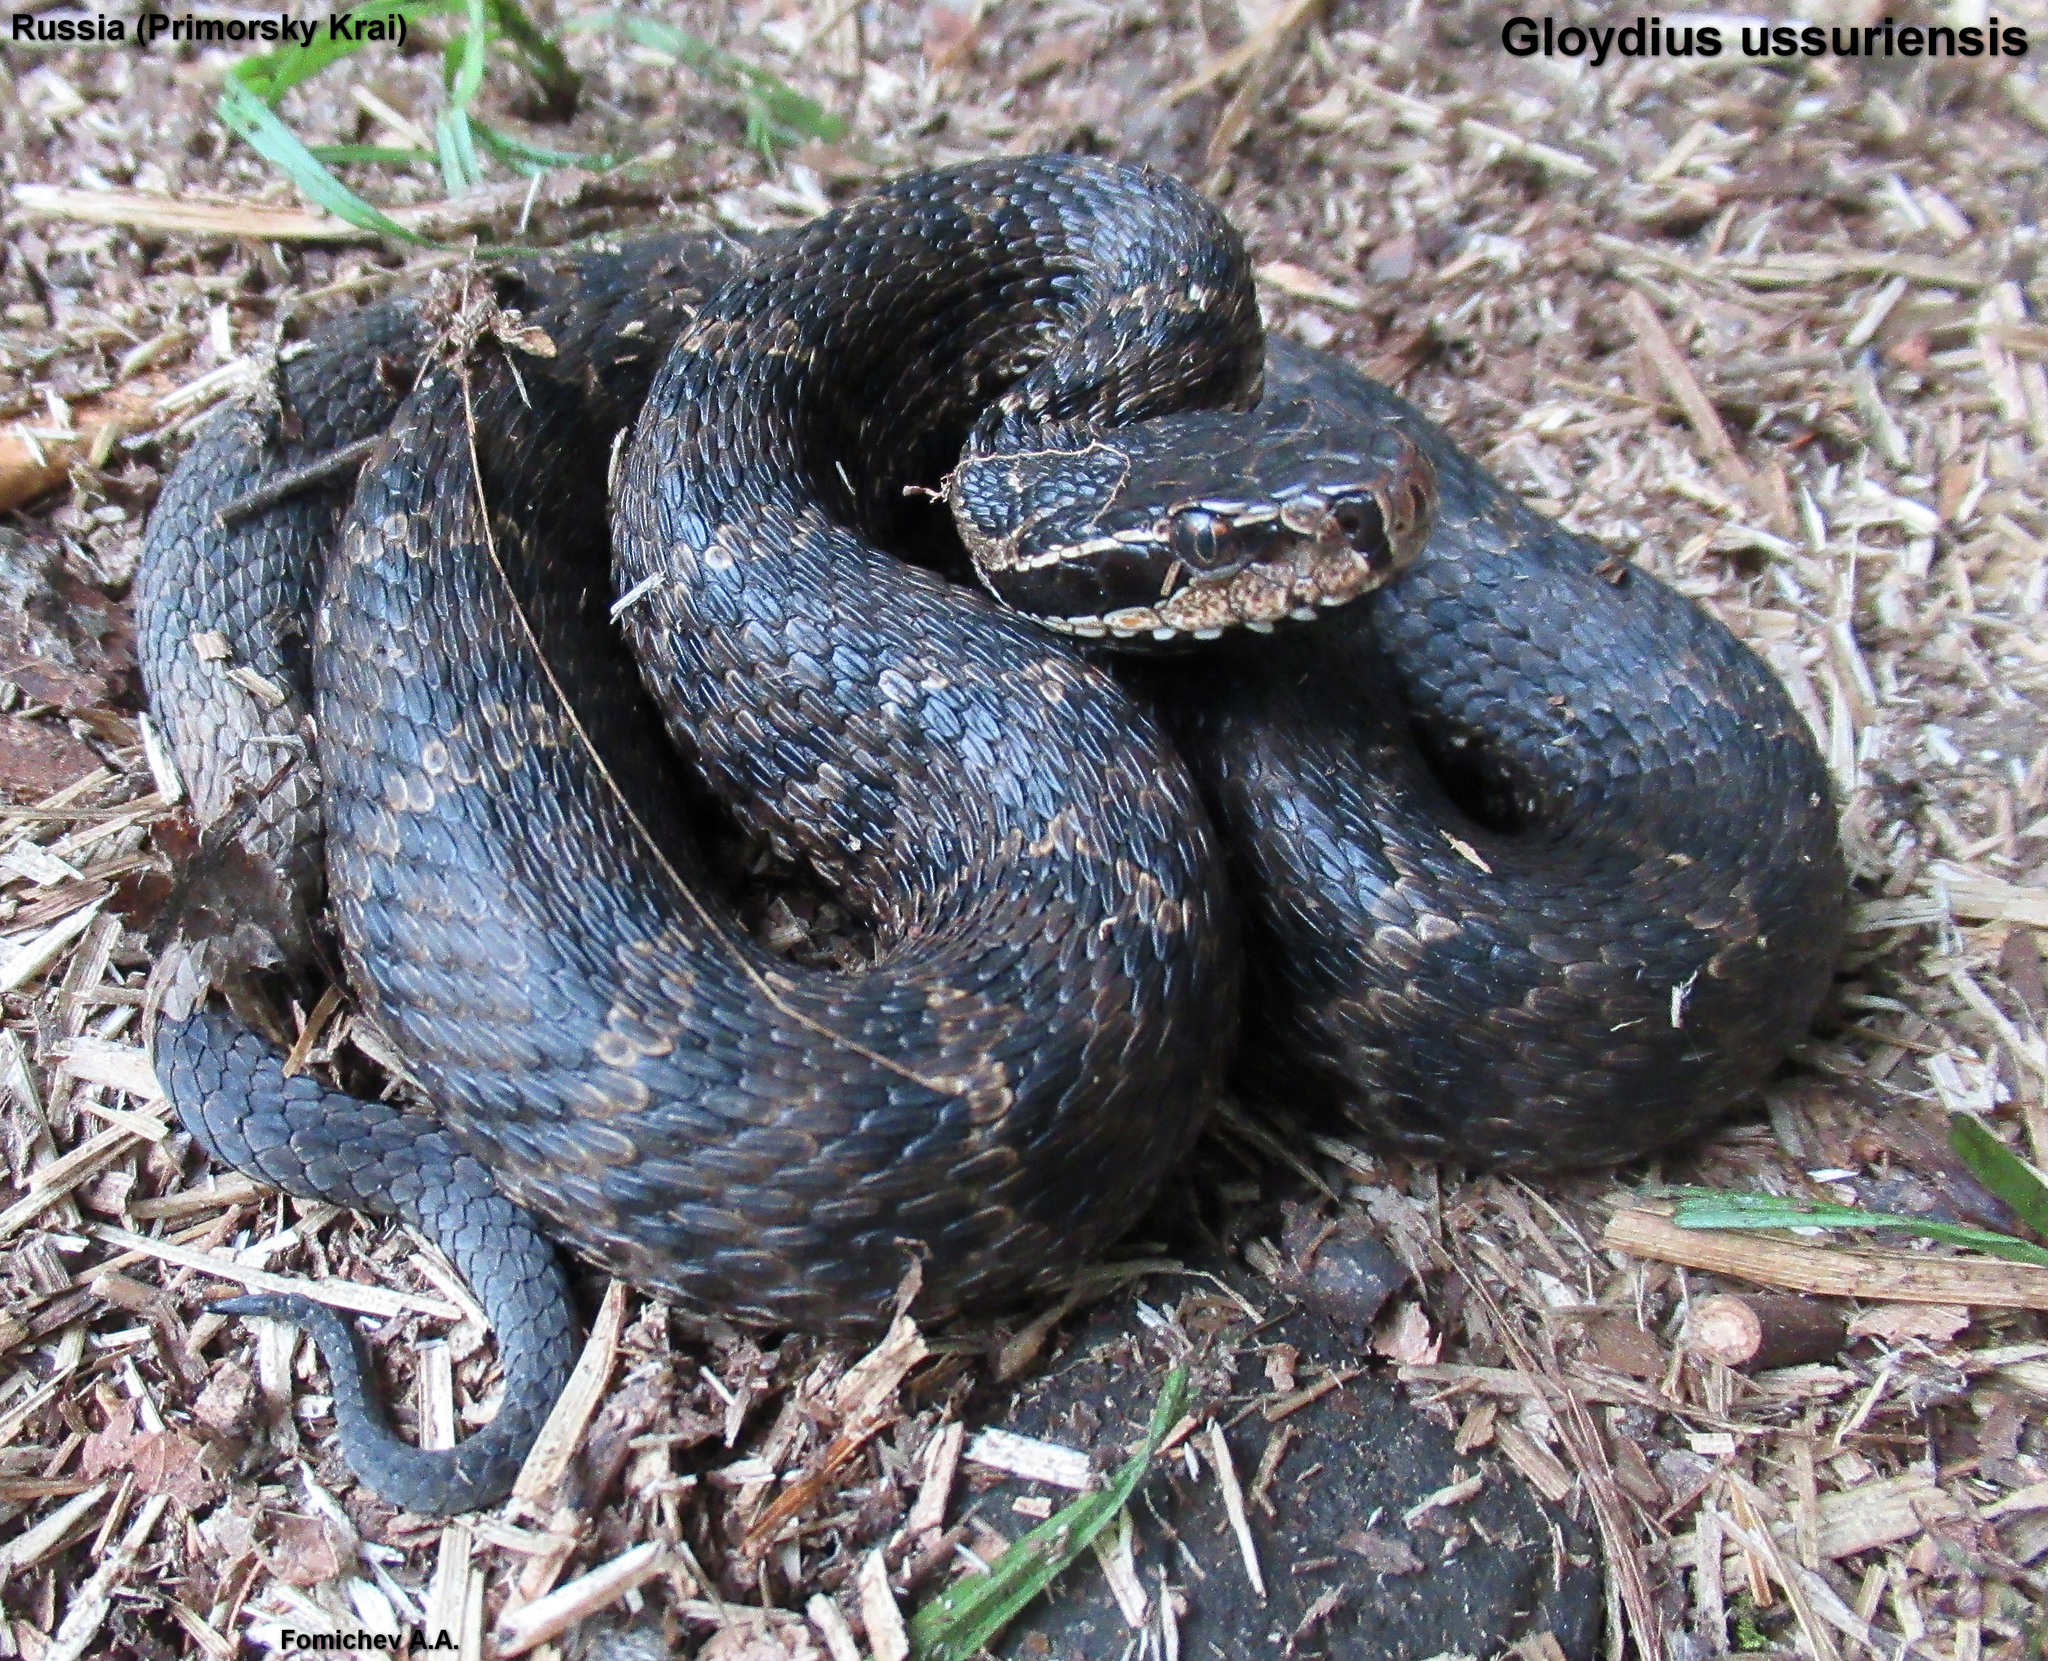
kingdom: Animalia
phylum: Chordata
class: Squamata
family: Viperidae
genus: Gloydius
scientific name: Gloydius ussuriensis
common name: Ussuri mamushi
